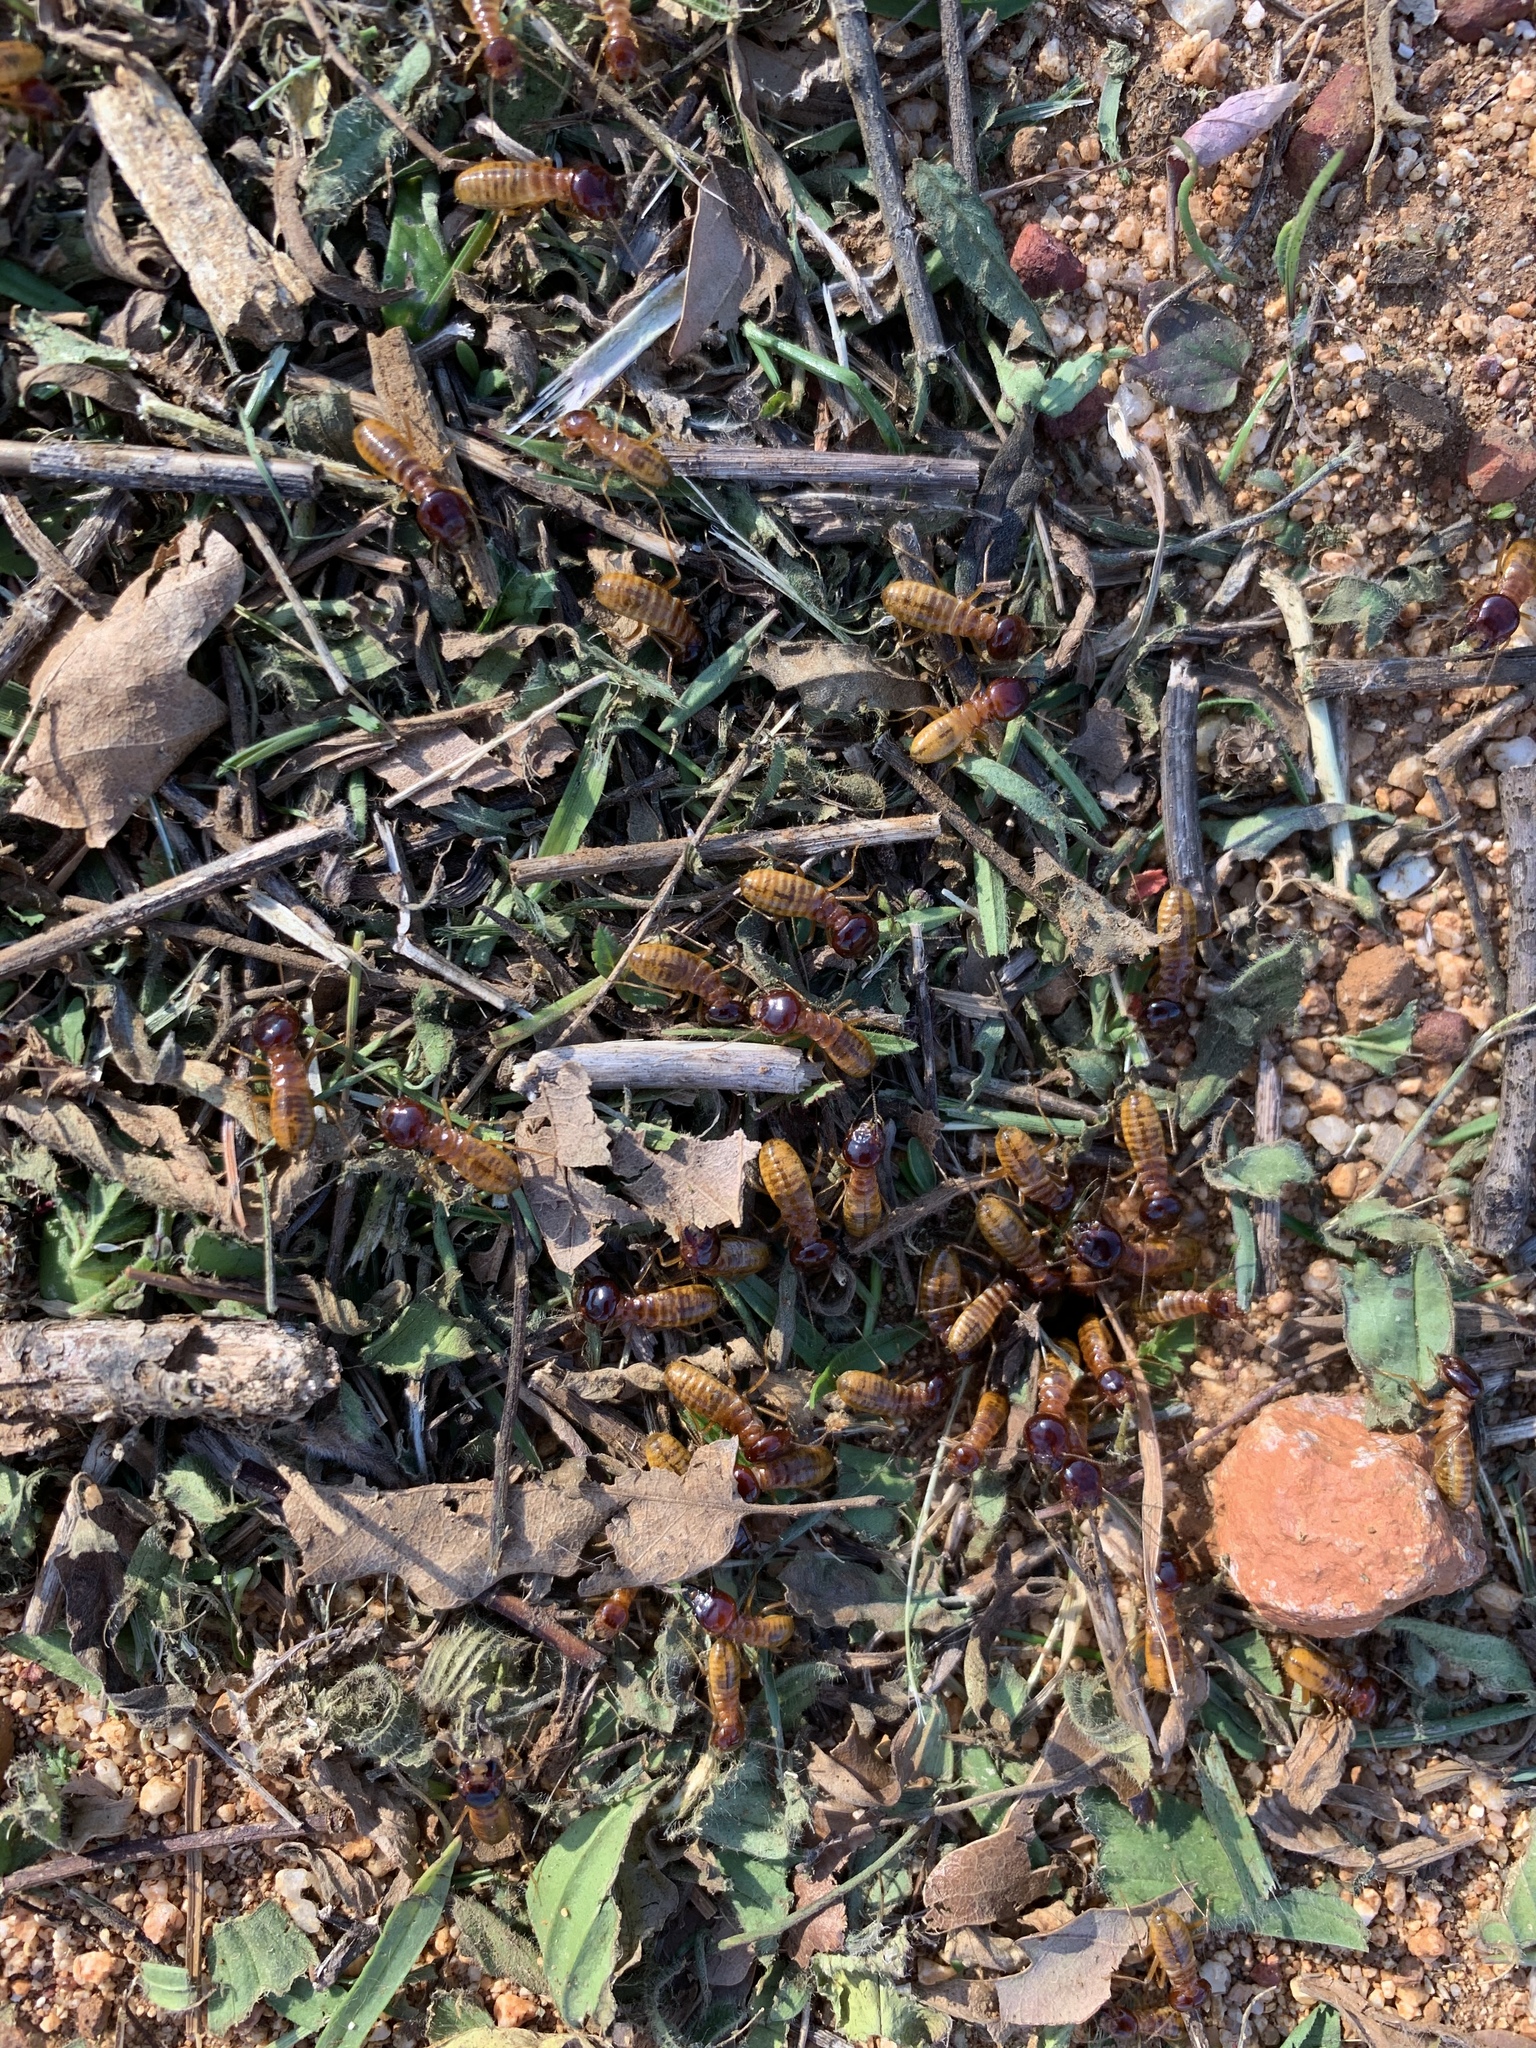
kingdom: Animalia
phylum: Arthropoda
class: Insecta
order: Blattodea
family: Hodotermitidae
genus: Microhodotermes
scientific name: Microhodotermes viator
